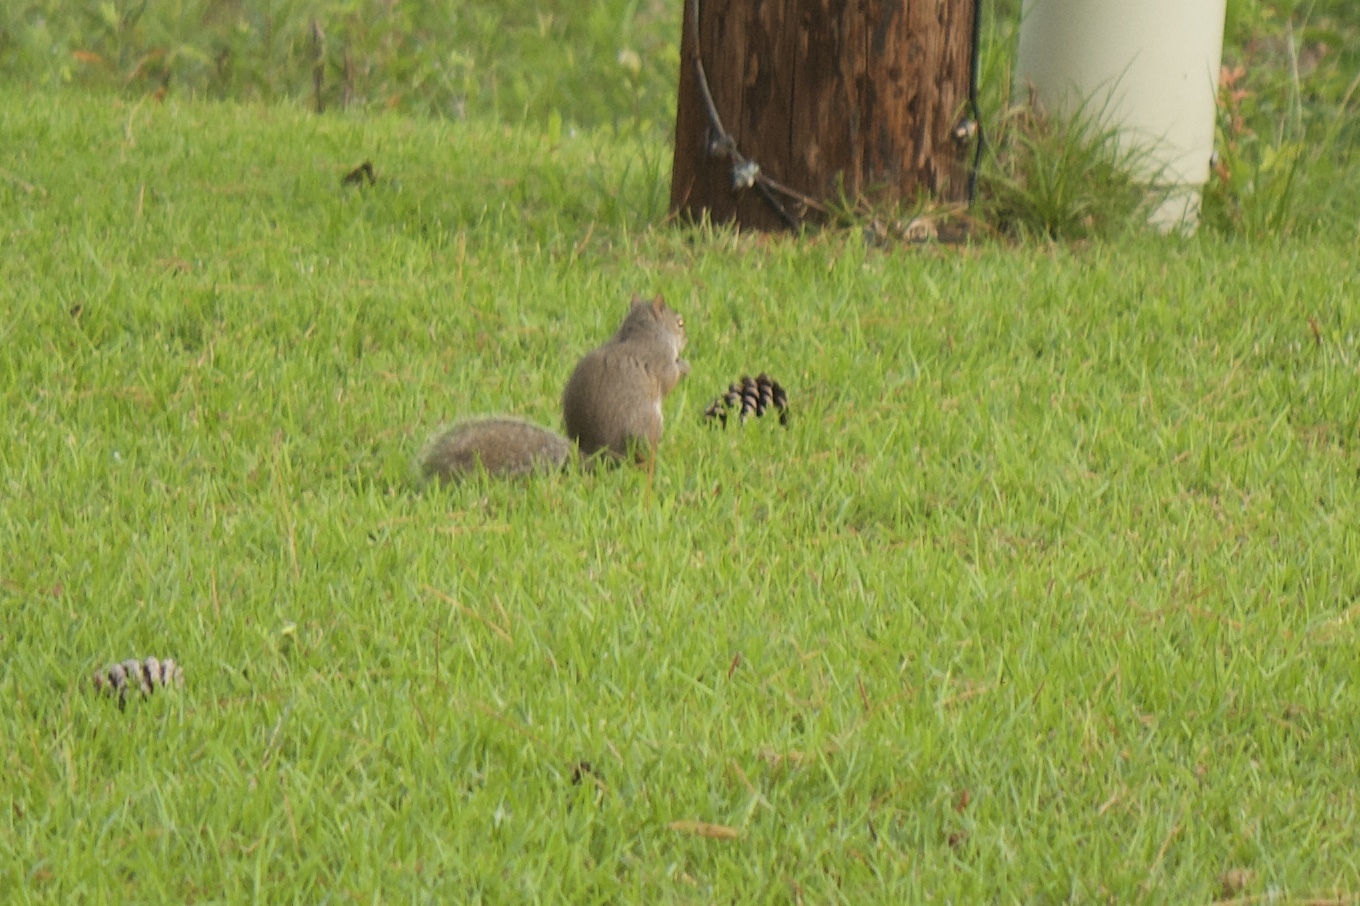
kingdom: Animalia
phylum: Chordata
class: Mammalia
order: Rodentia
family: Sciuridae
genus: Sciurus
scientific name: Sciurus carolinensis
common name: Eastern gray squirrel
